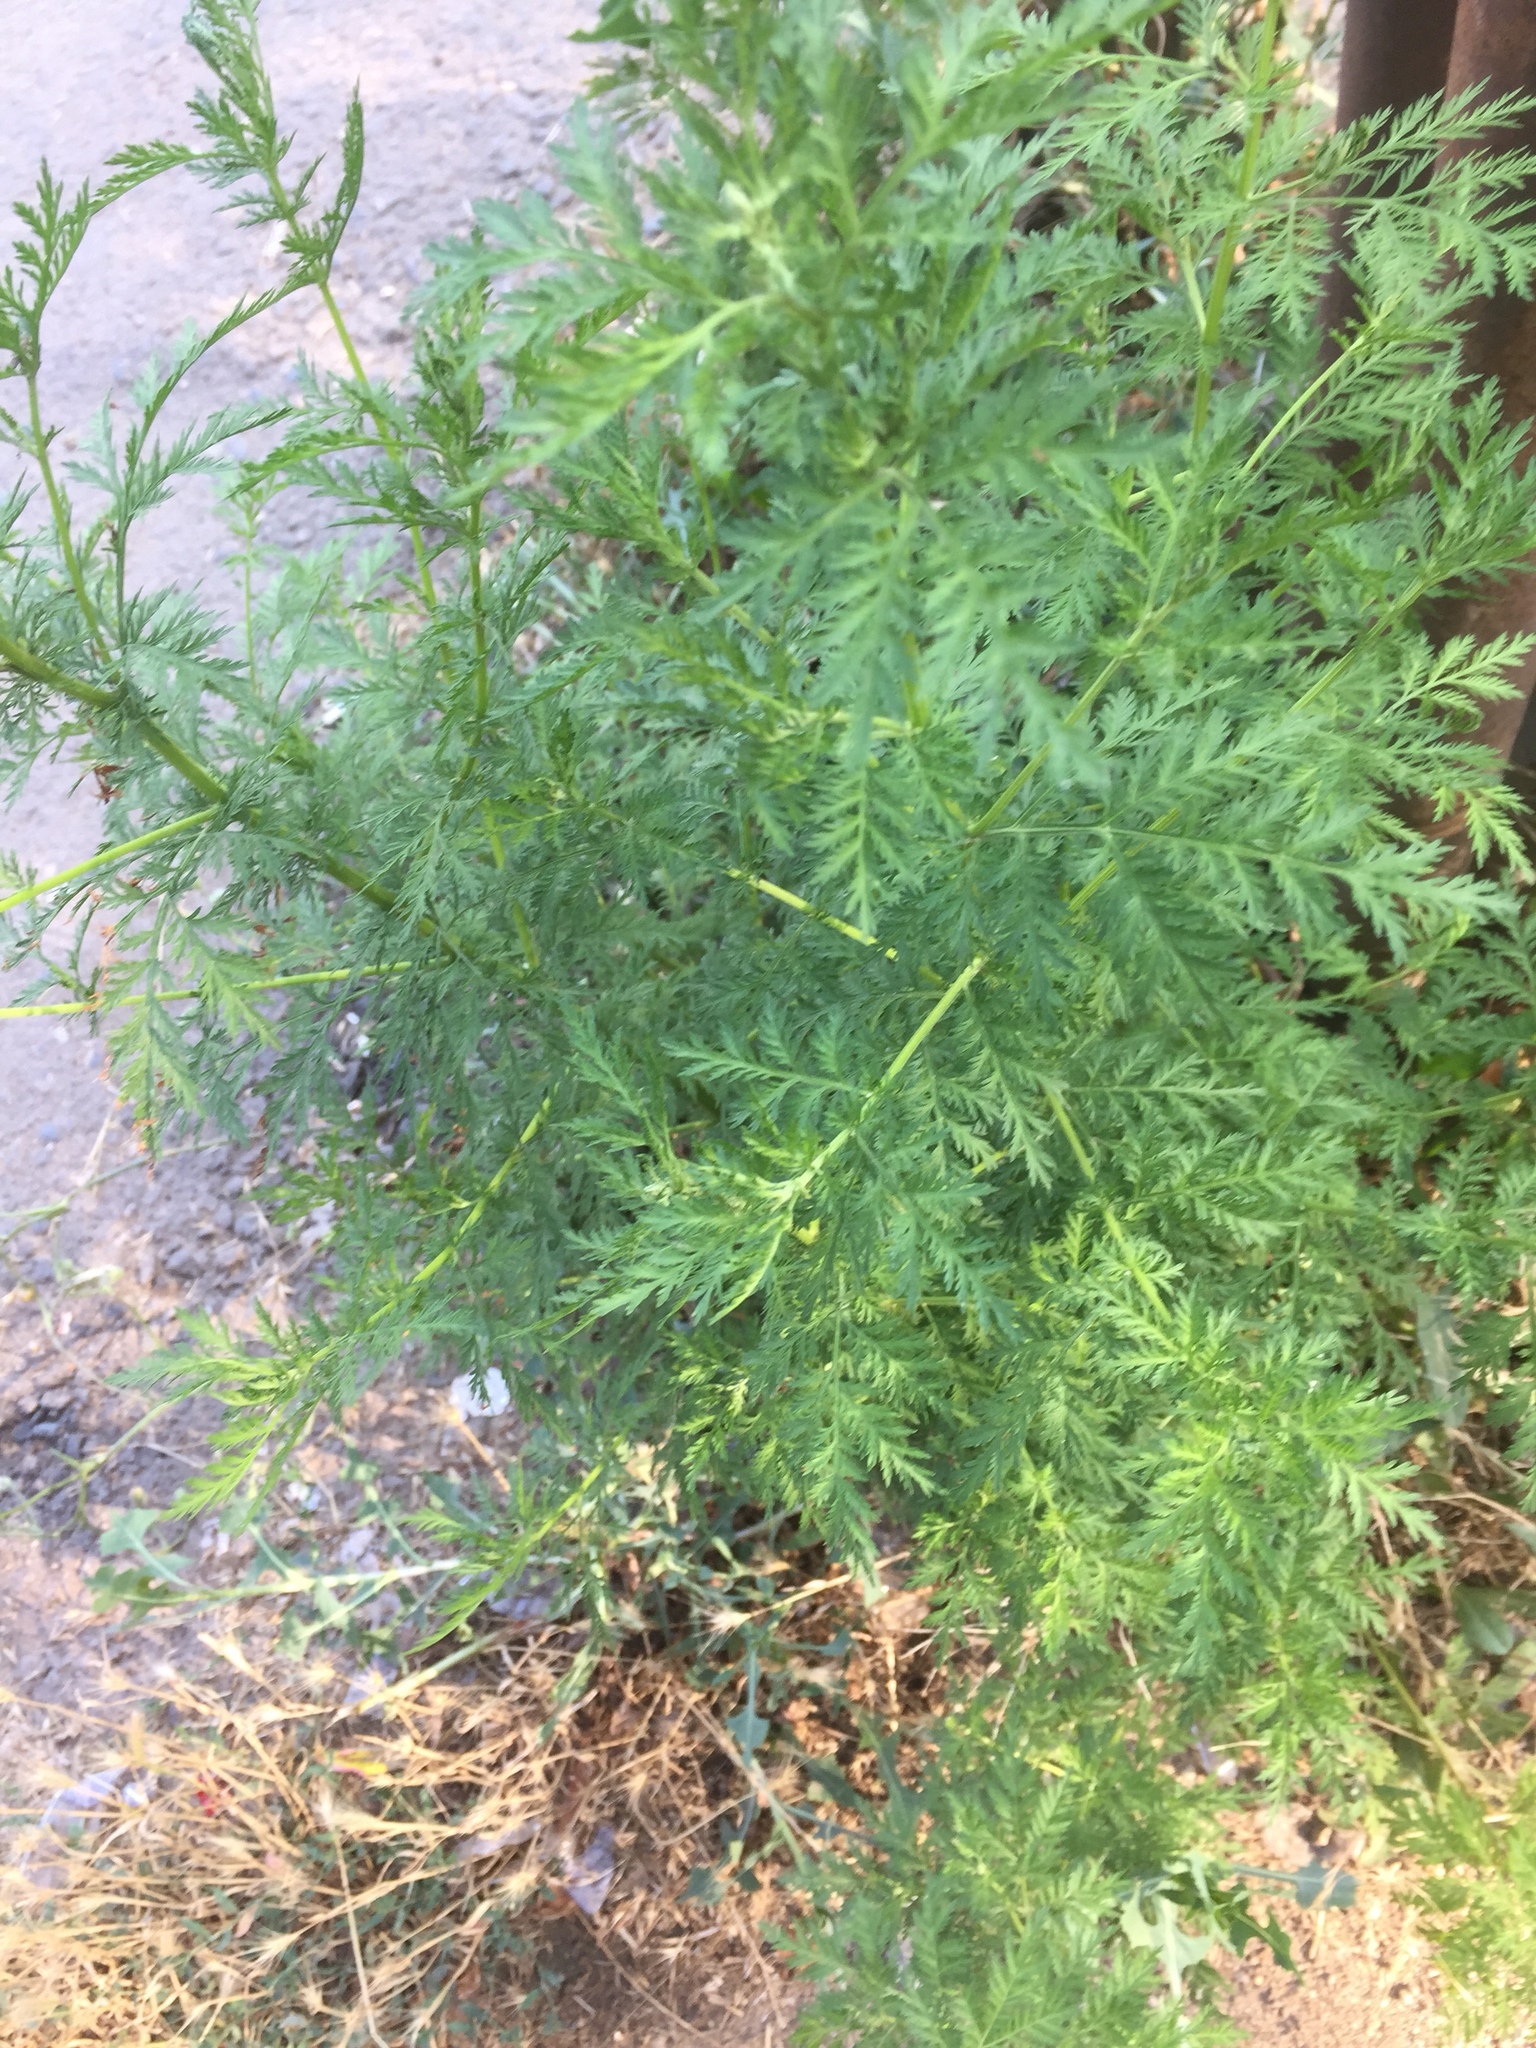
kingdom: Plantae
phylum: Tracheophyta
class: Magnoliopsida
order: Asterales
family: Asteraceae
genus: Artemisia
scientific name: Artemisia annua
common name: Sweet sagewort
